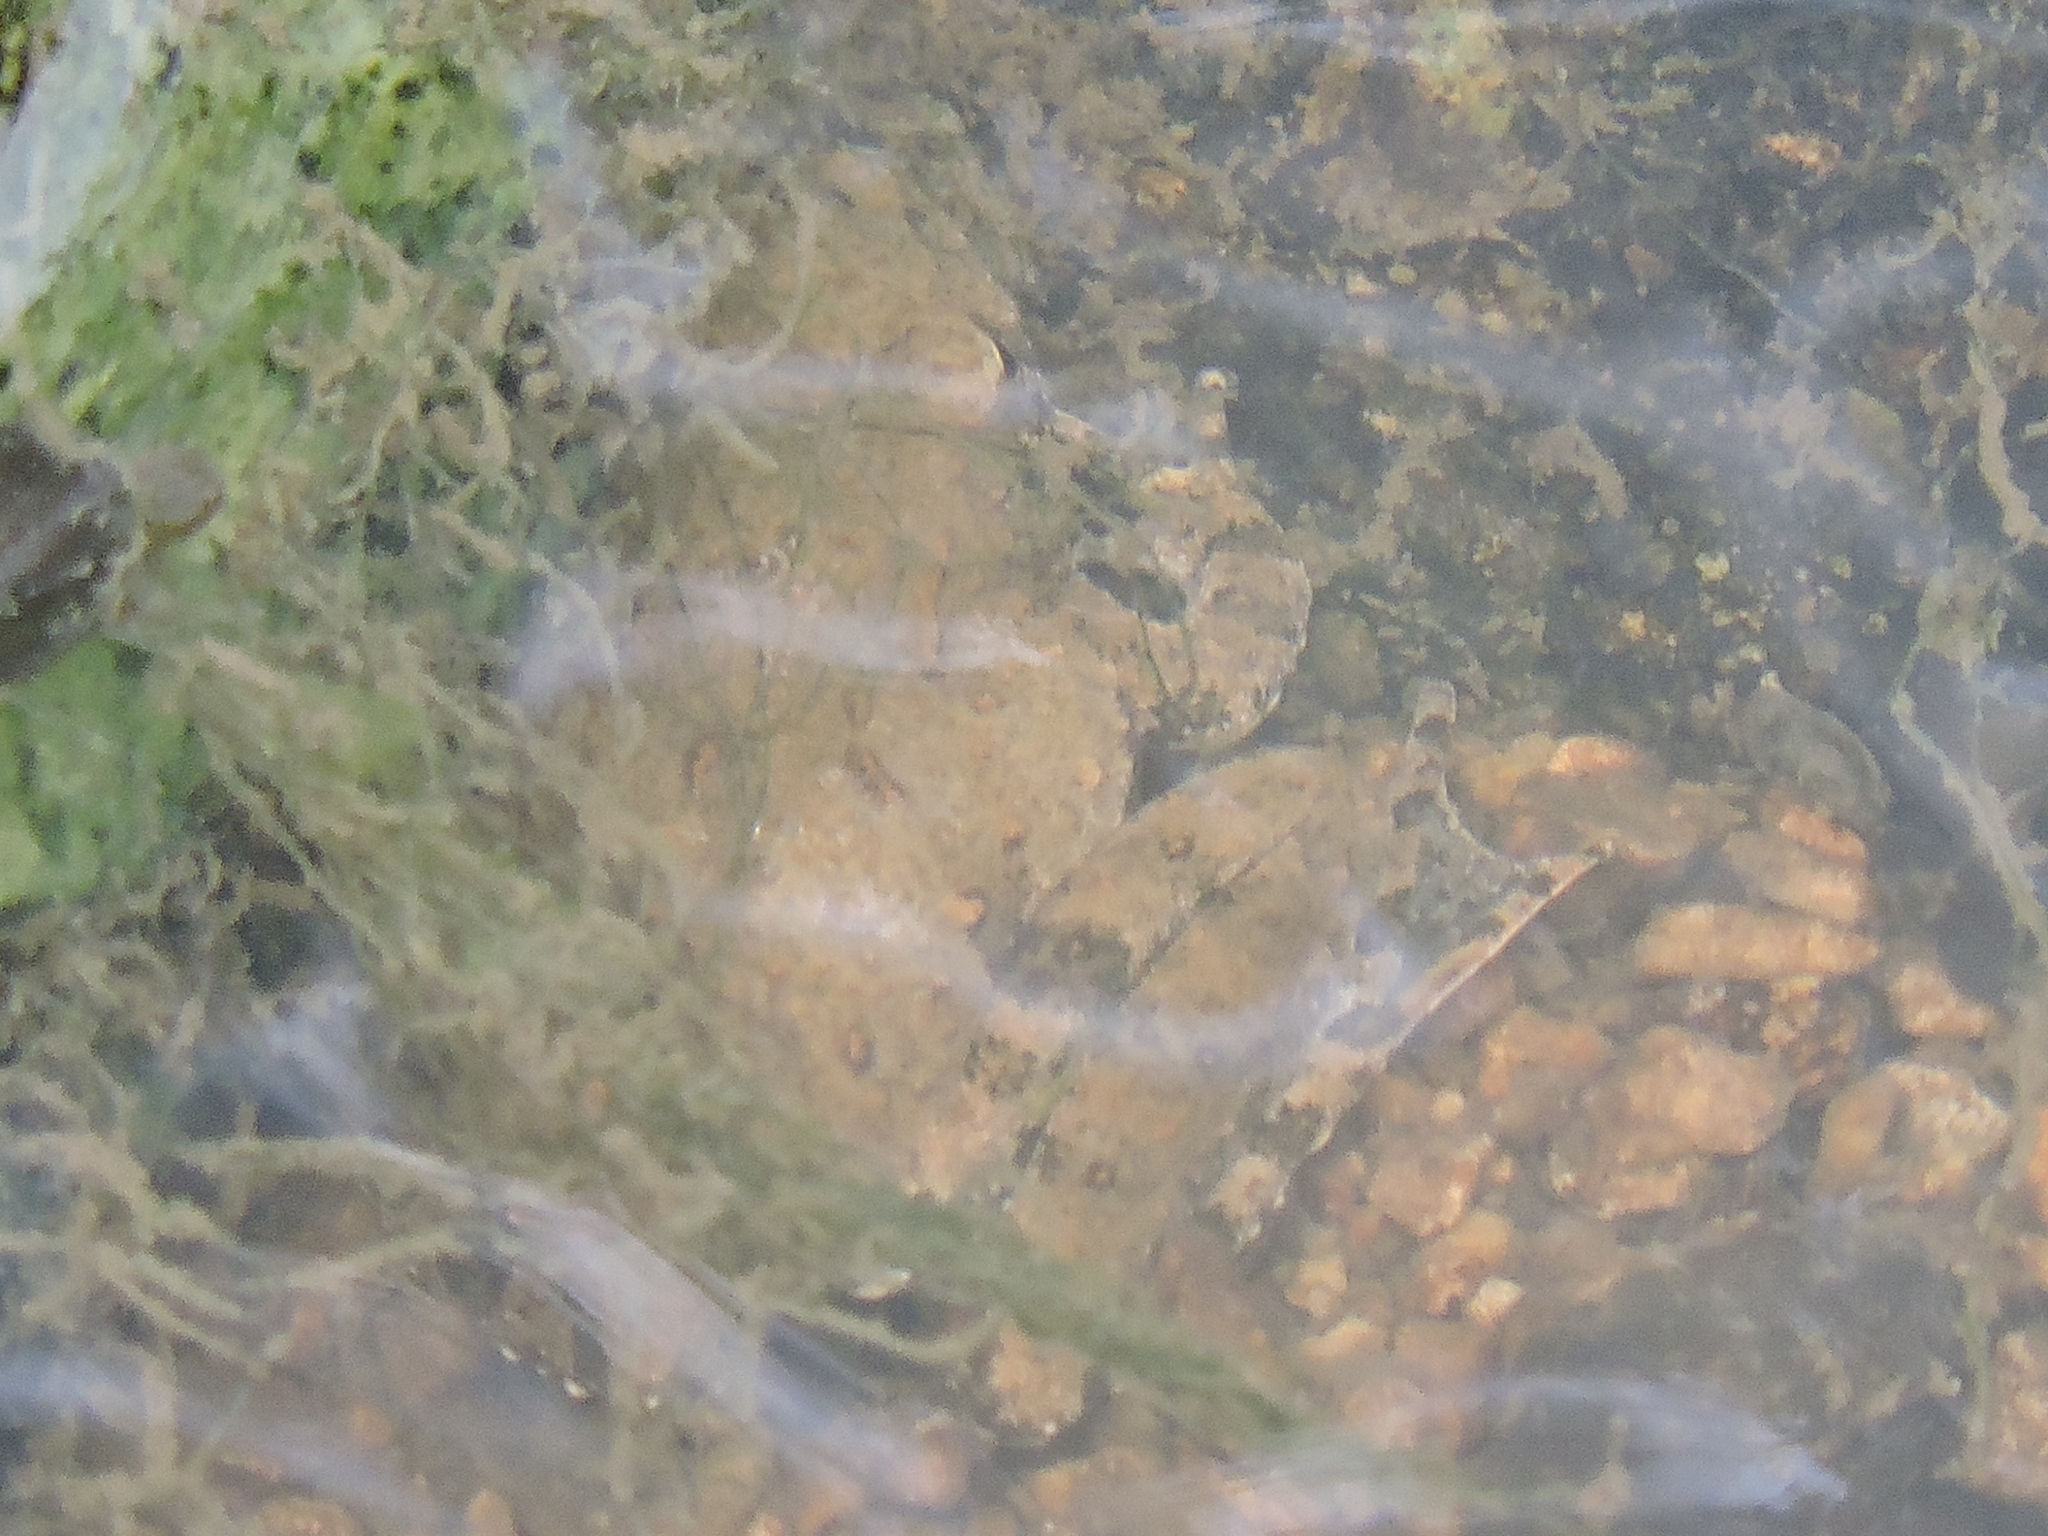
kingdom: Animalia
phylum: Chordata
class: Amphibia
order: Anura
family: Hylidae
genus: Acris
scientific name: Acris blanchardi
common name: Blanchard's cricket frog
